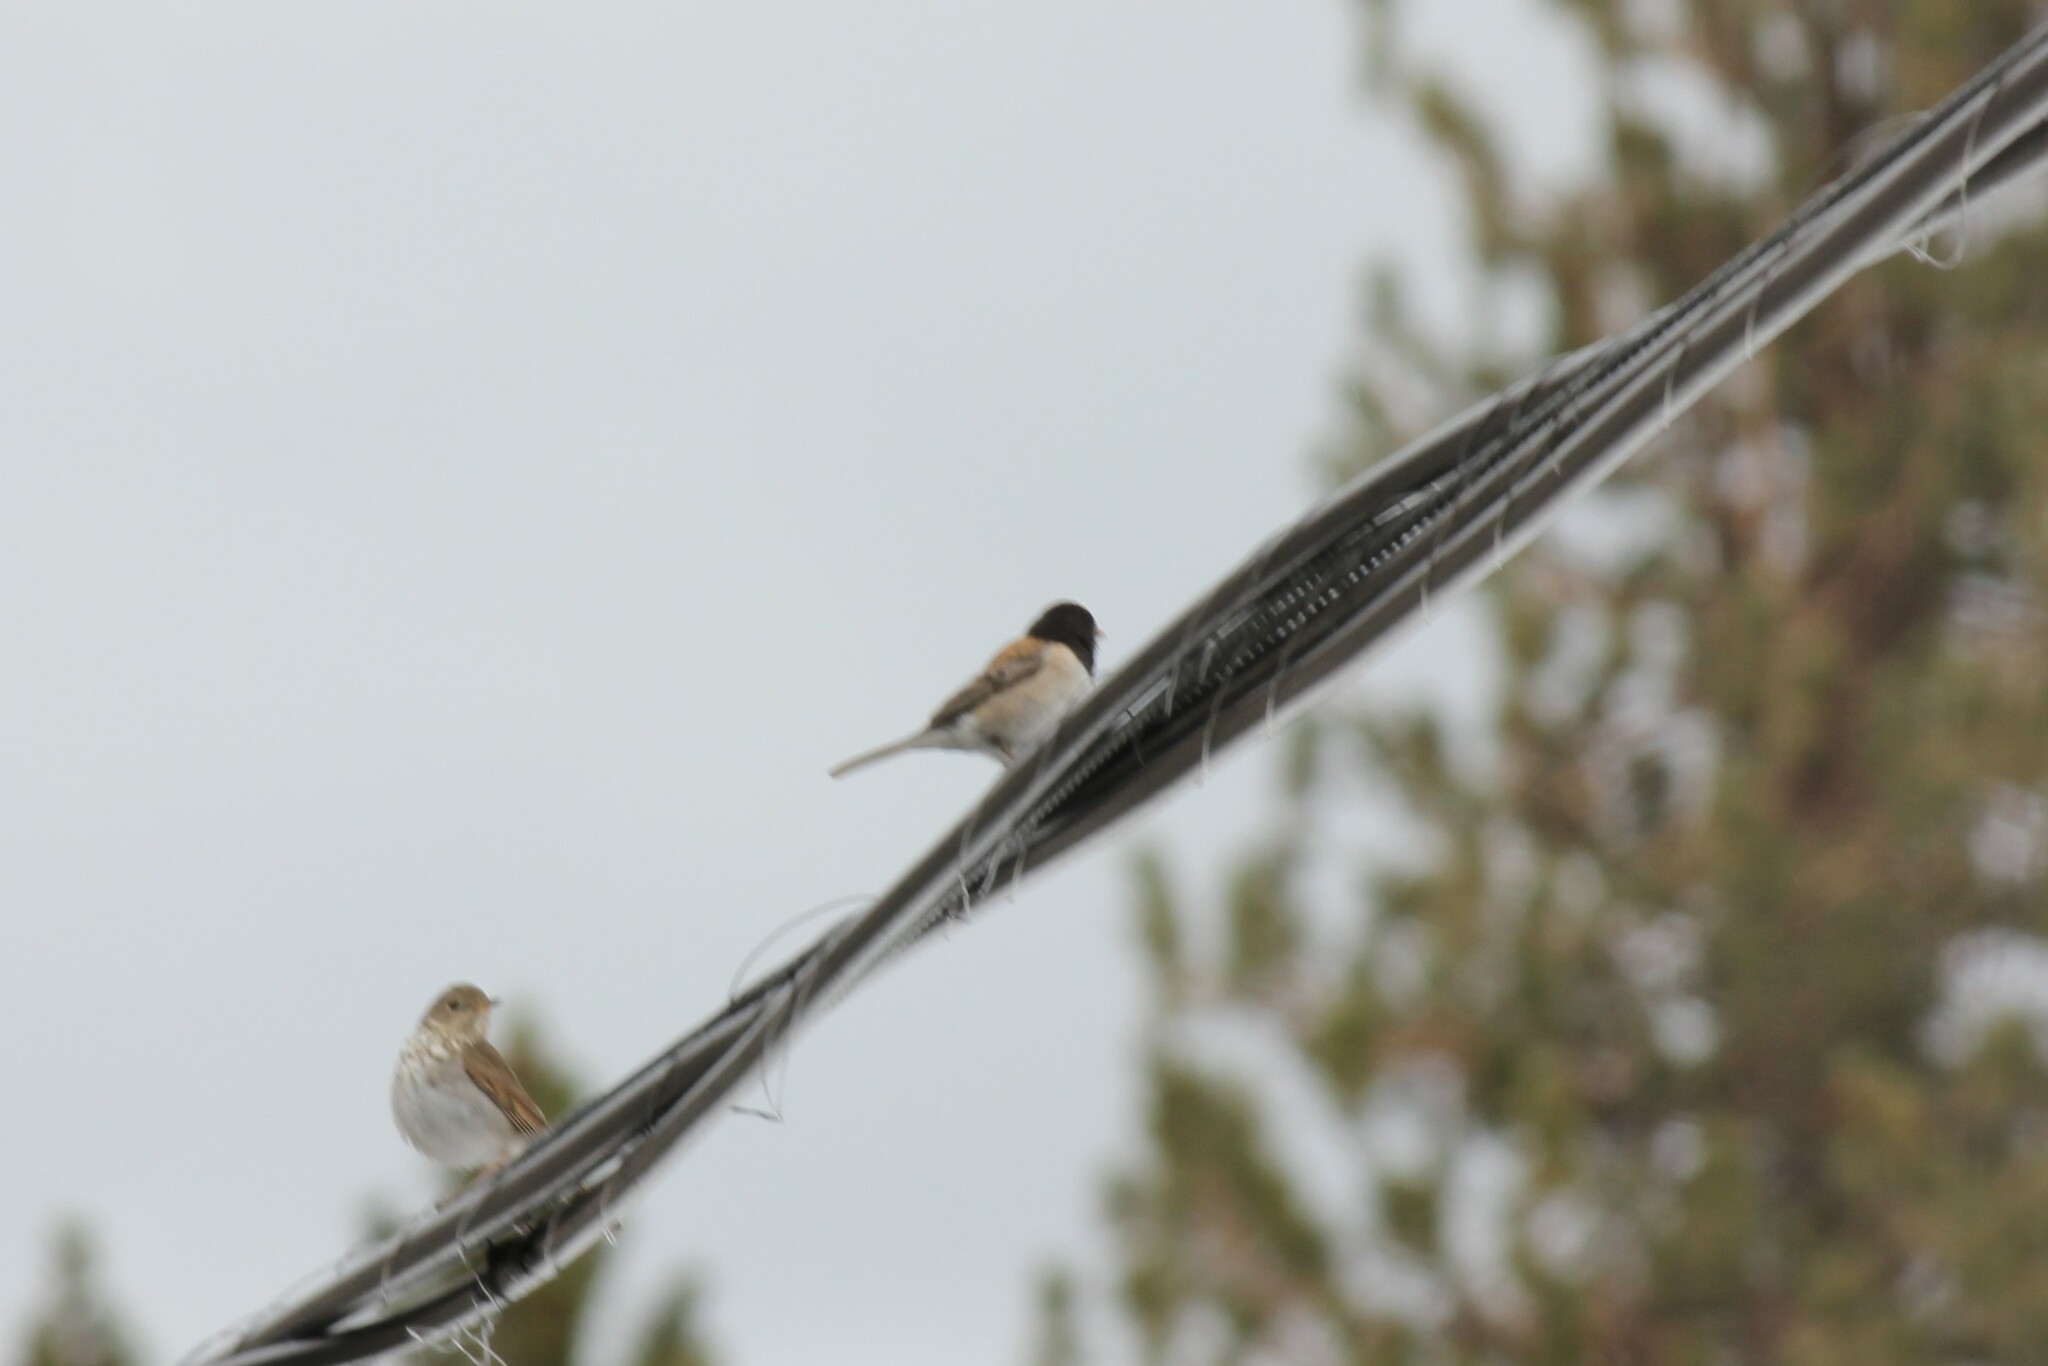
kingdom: Animalia
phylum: Chordata
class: Aves
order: Passeriformes
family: Passerellidae
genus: Junco
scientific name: Junco hyemalis
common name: Dark-eyed junco
